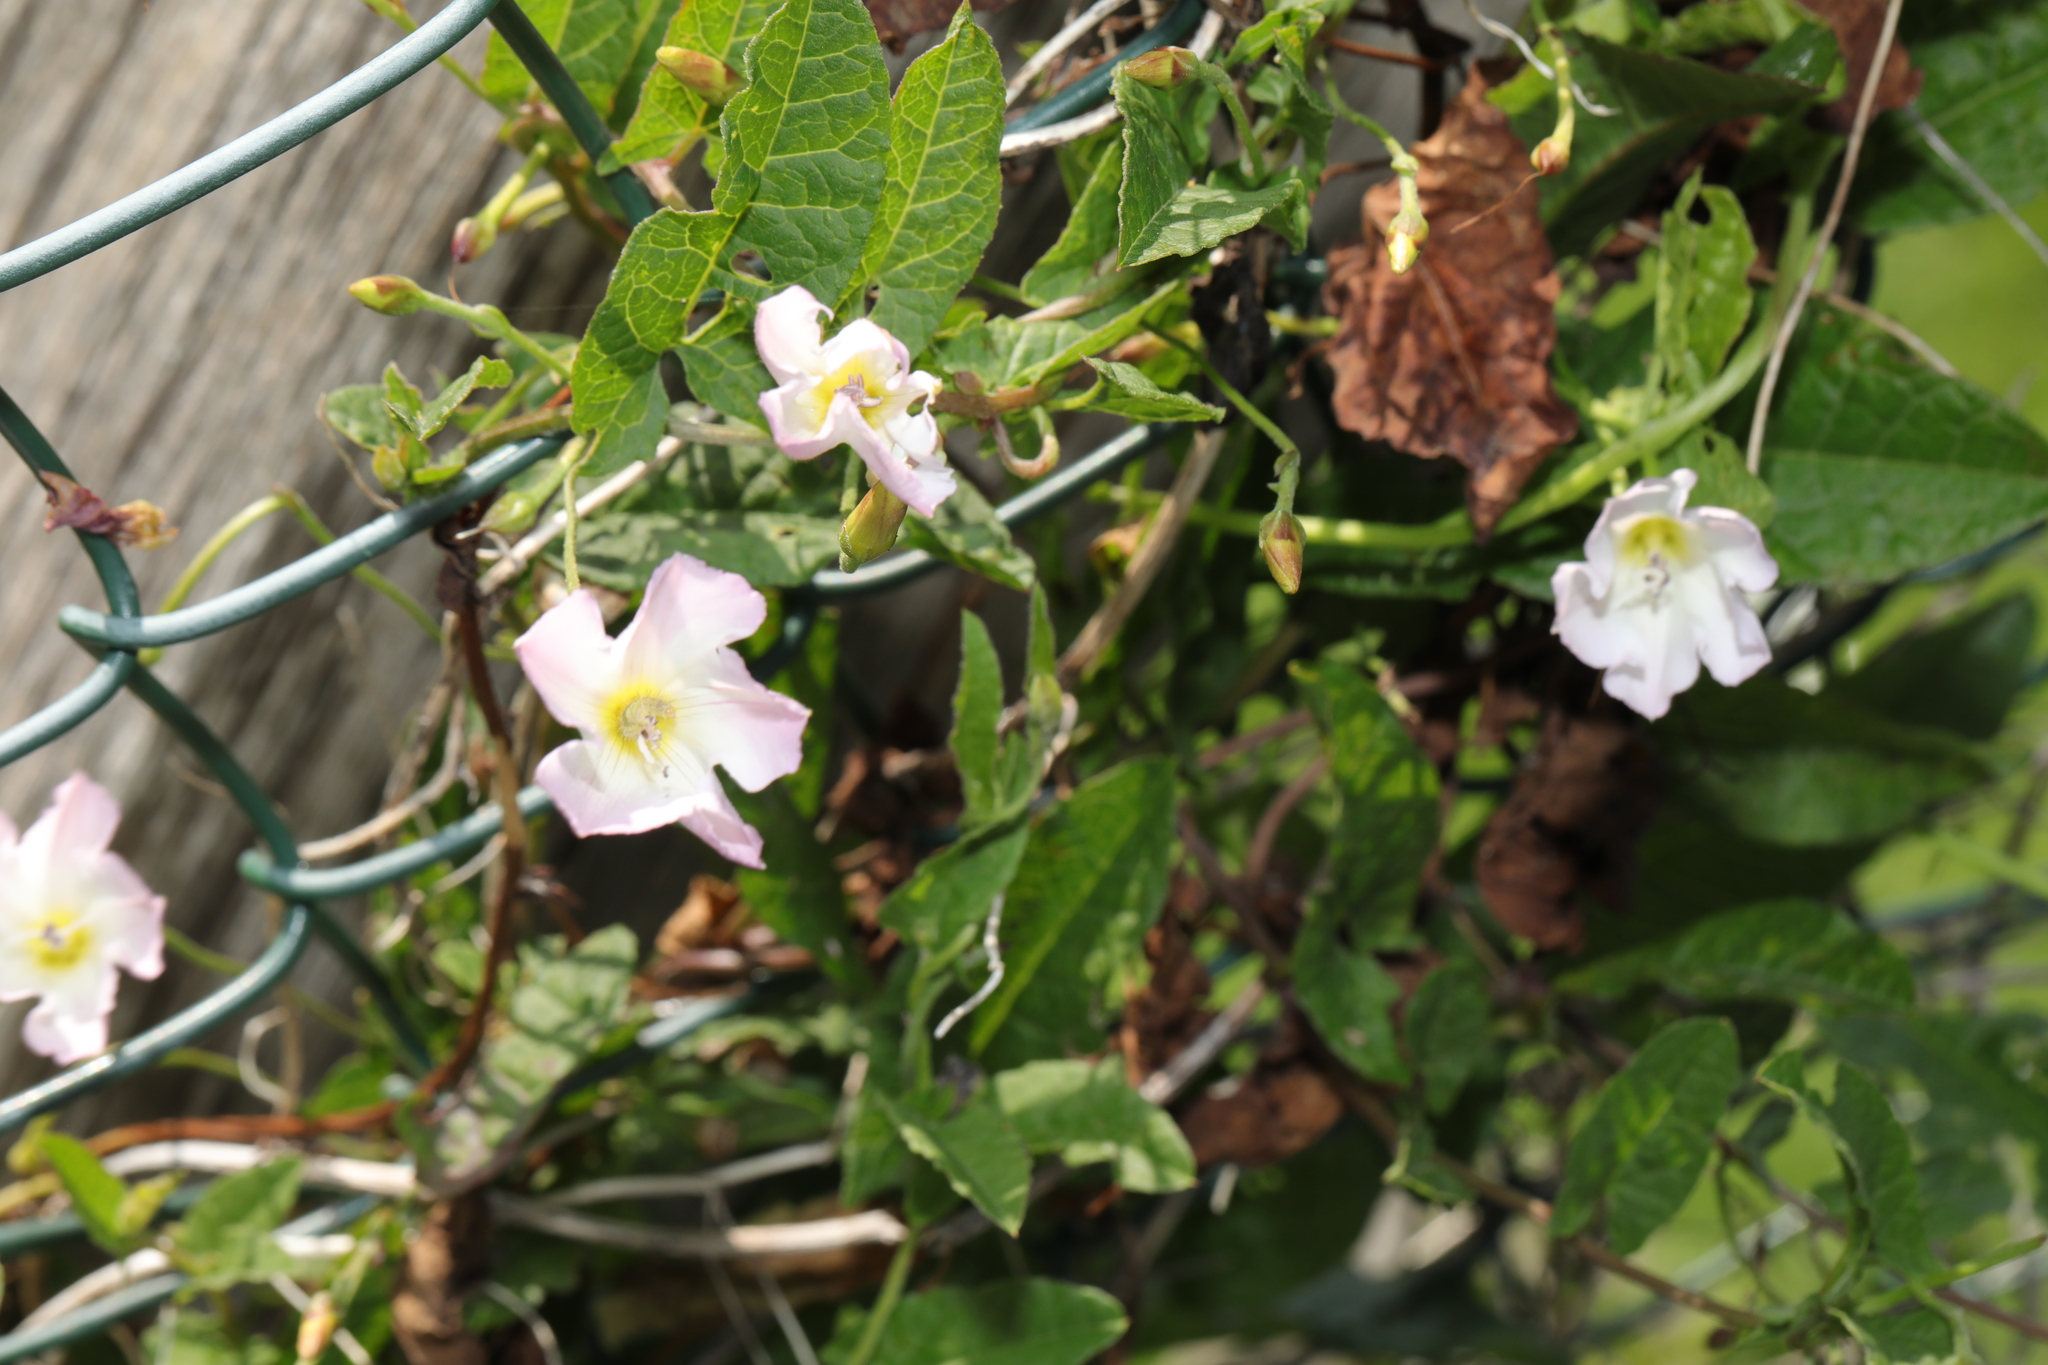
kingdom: Plantae
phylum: Tracheophyta
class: Magnoliopsida
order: Solanales
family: Convolvulaceae
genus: Convolvulus
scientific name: Convolvulus arvensis
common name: Field bindweed
